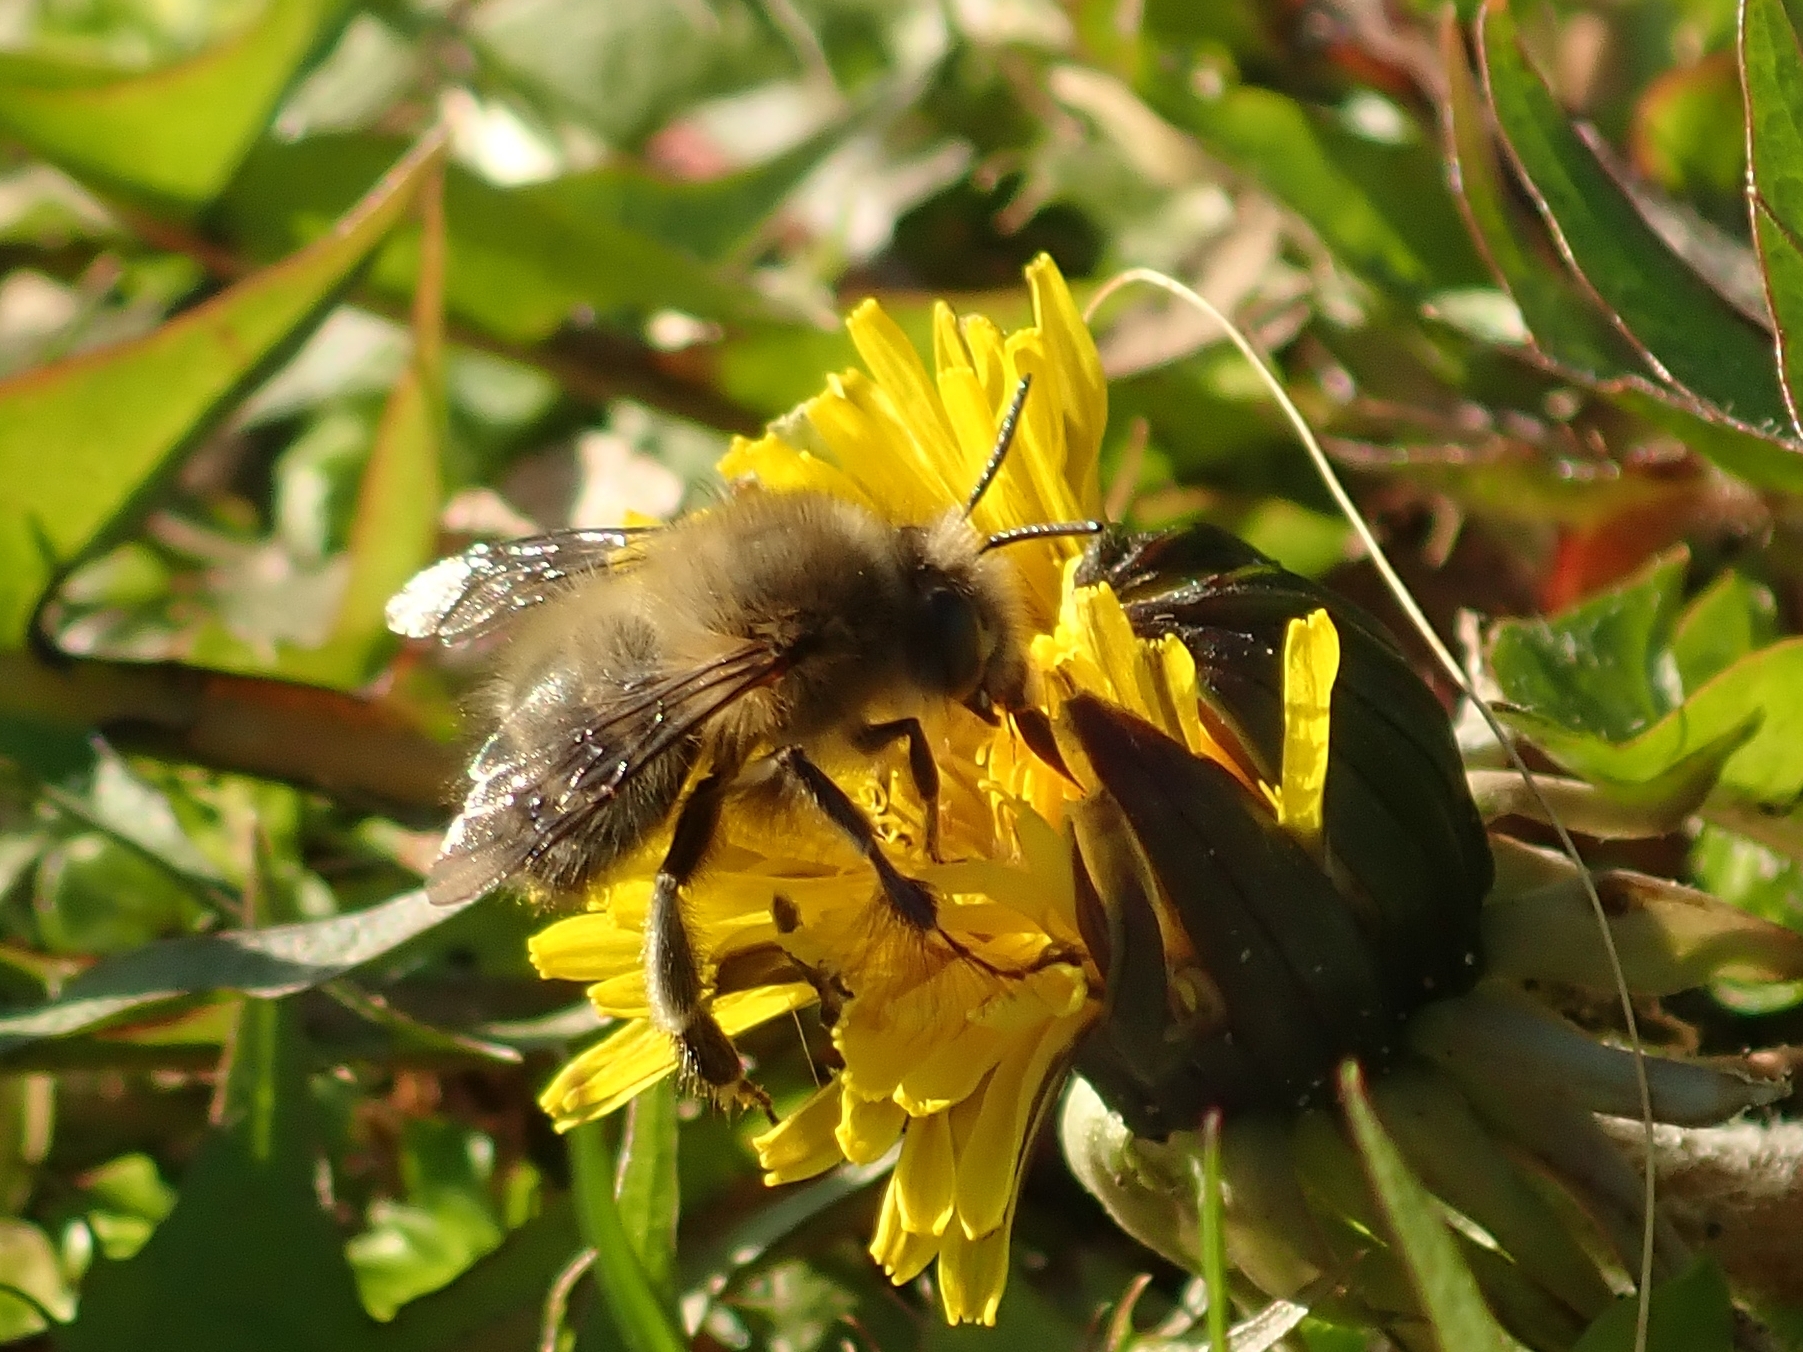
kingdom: Animalia
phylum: Arthropoda
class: Insecta
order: Hymenoptera
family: Apidae
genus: Anthophora
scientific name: Anthophora plumipes
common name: Hairy-footed flower bee
